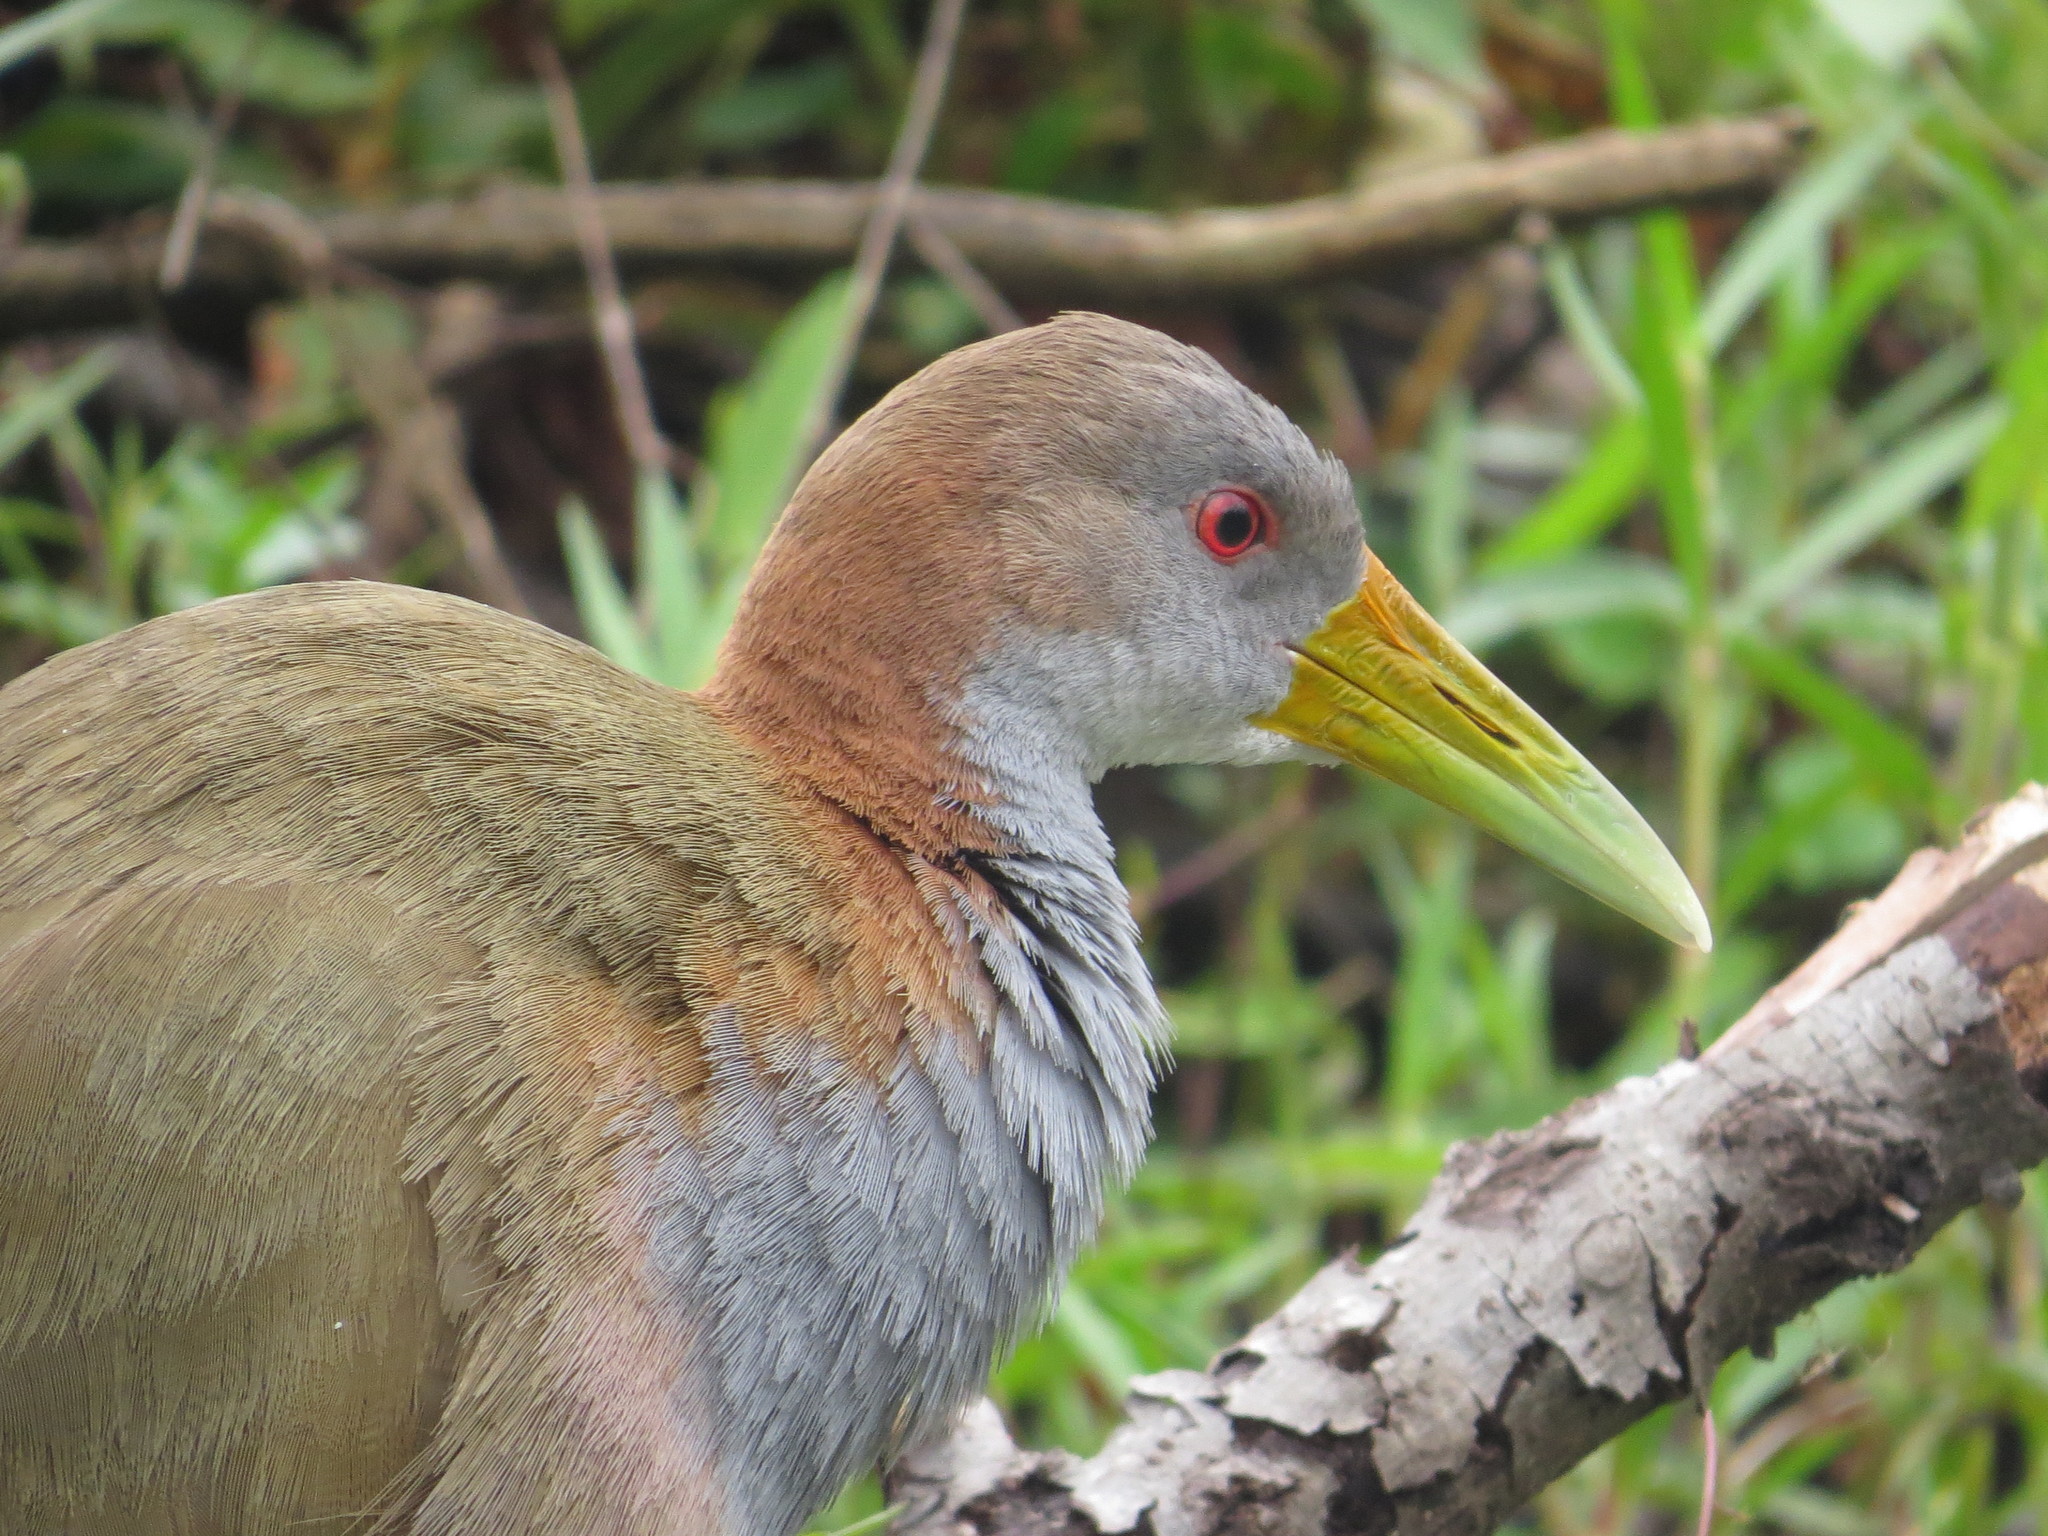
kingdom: Animalia
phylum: Chordata
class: Aves
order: Gruiformes
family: Rallidae
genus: Aramides
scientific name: Aramides ypecaha
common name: Giant wood rail
